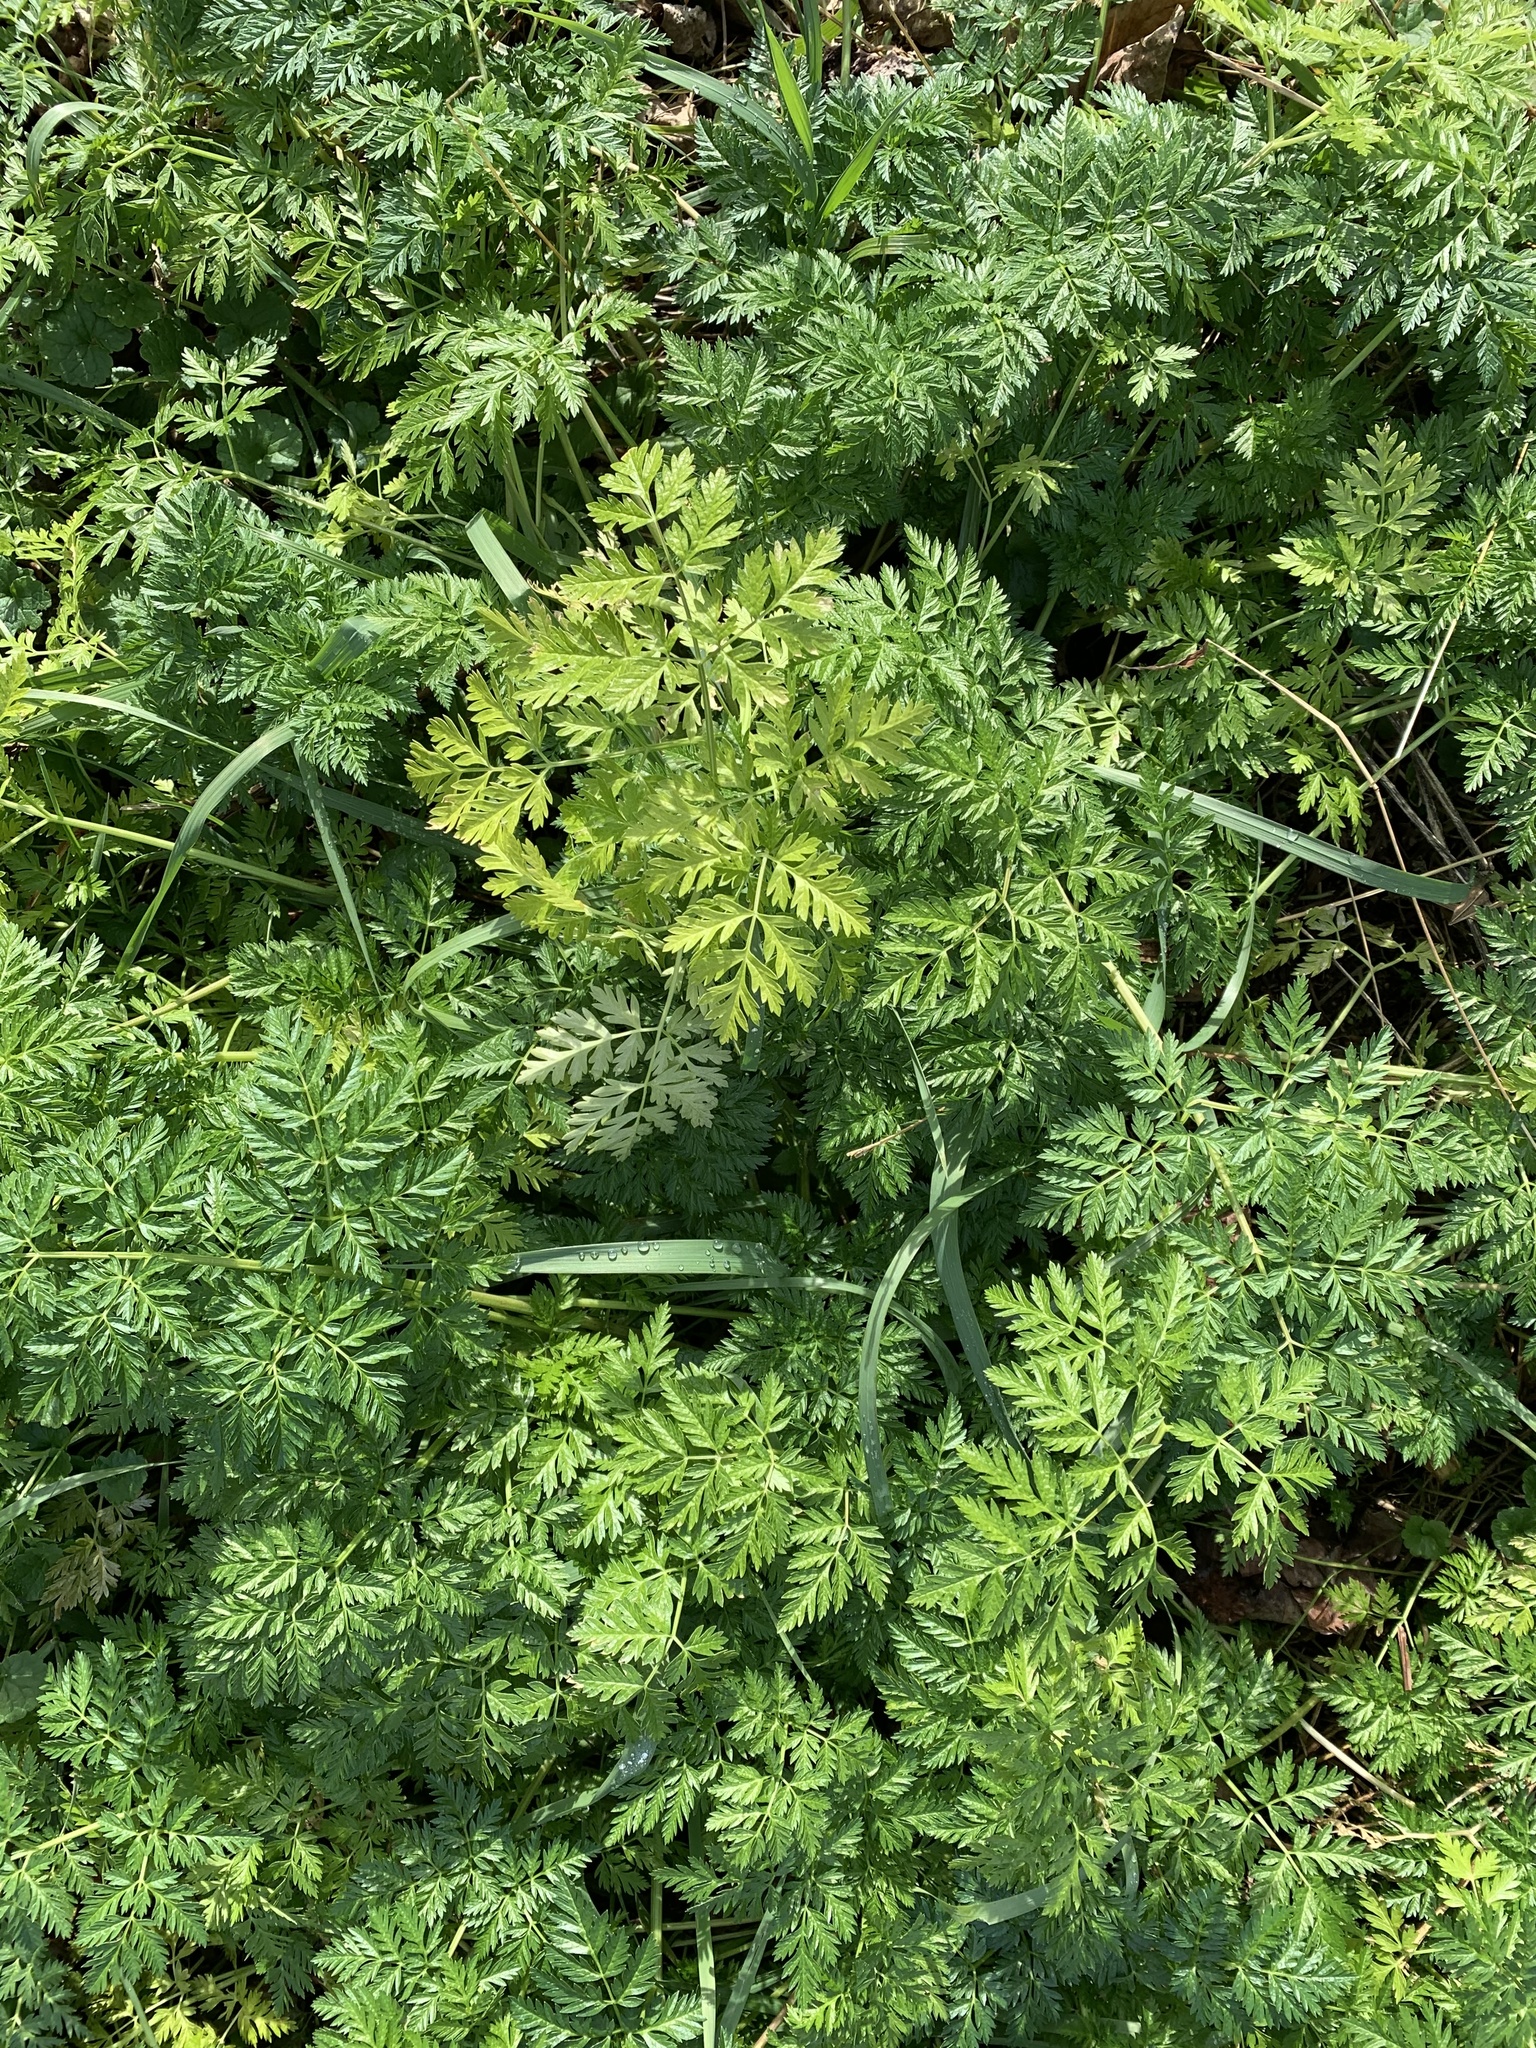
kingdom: Plantae
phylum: Tracheophyta
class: Magnoliopsida
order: Apiales
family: Apiaceae
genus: Conium
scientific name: Conium maculatum
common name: Hemlock
